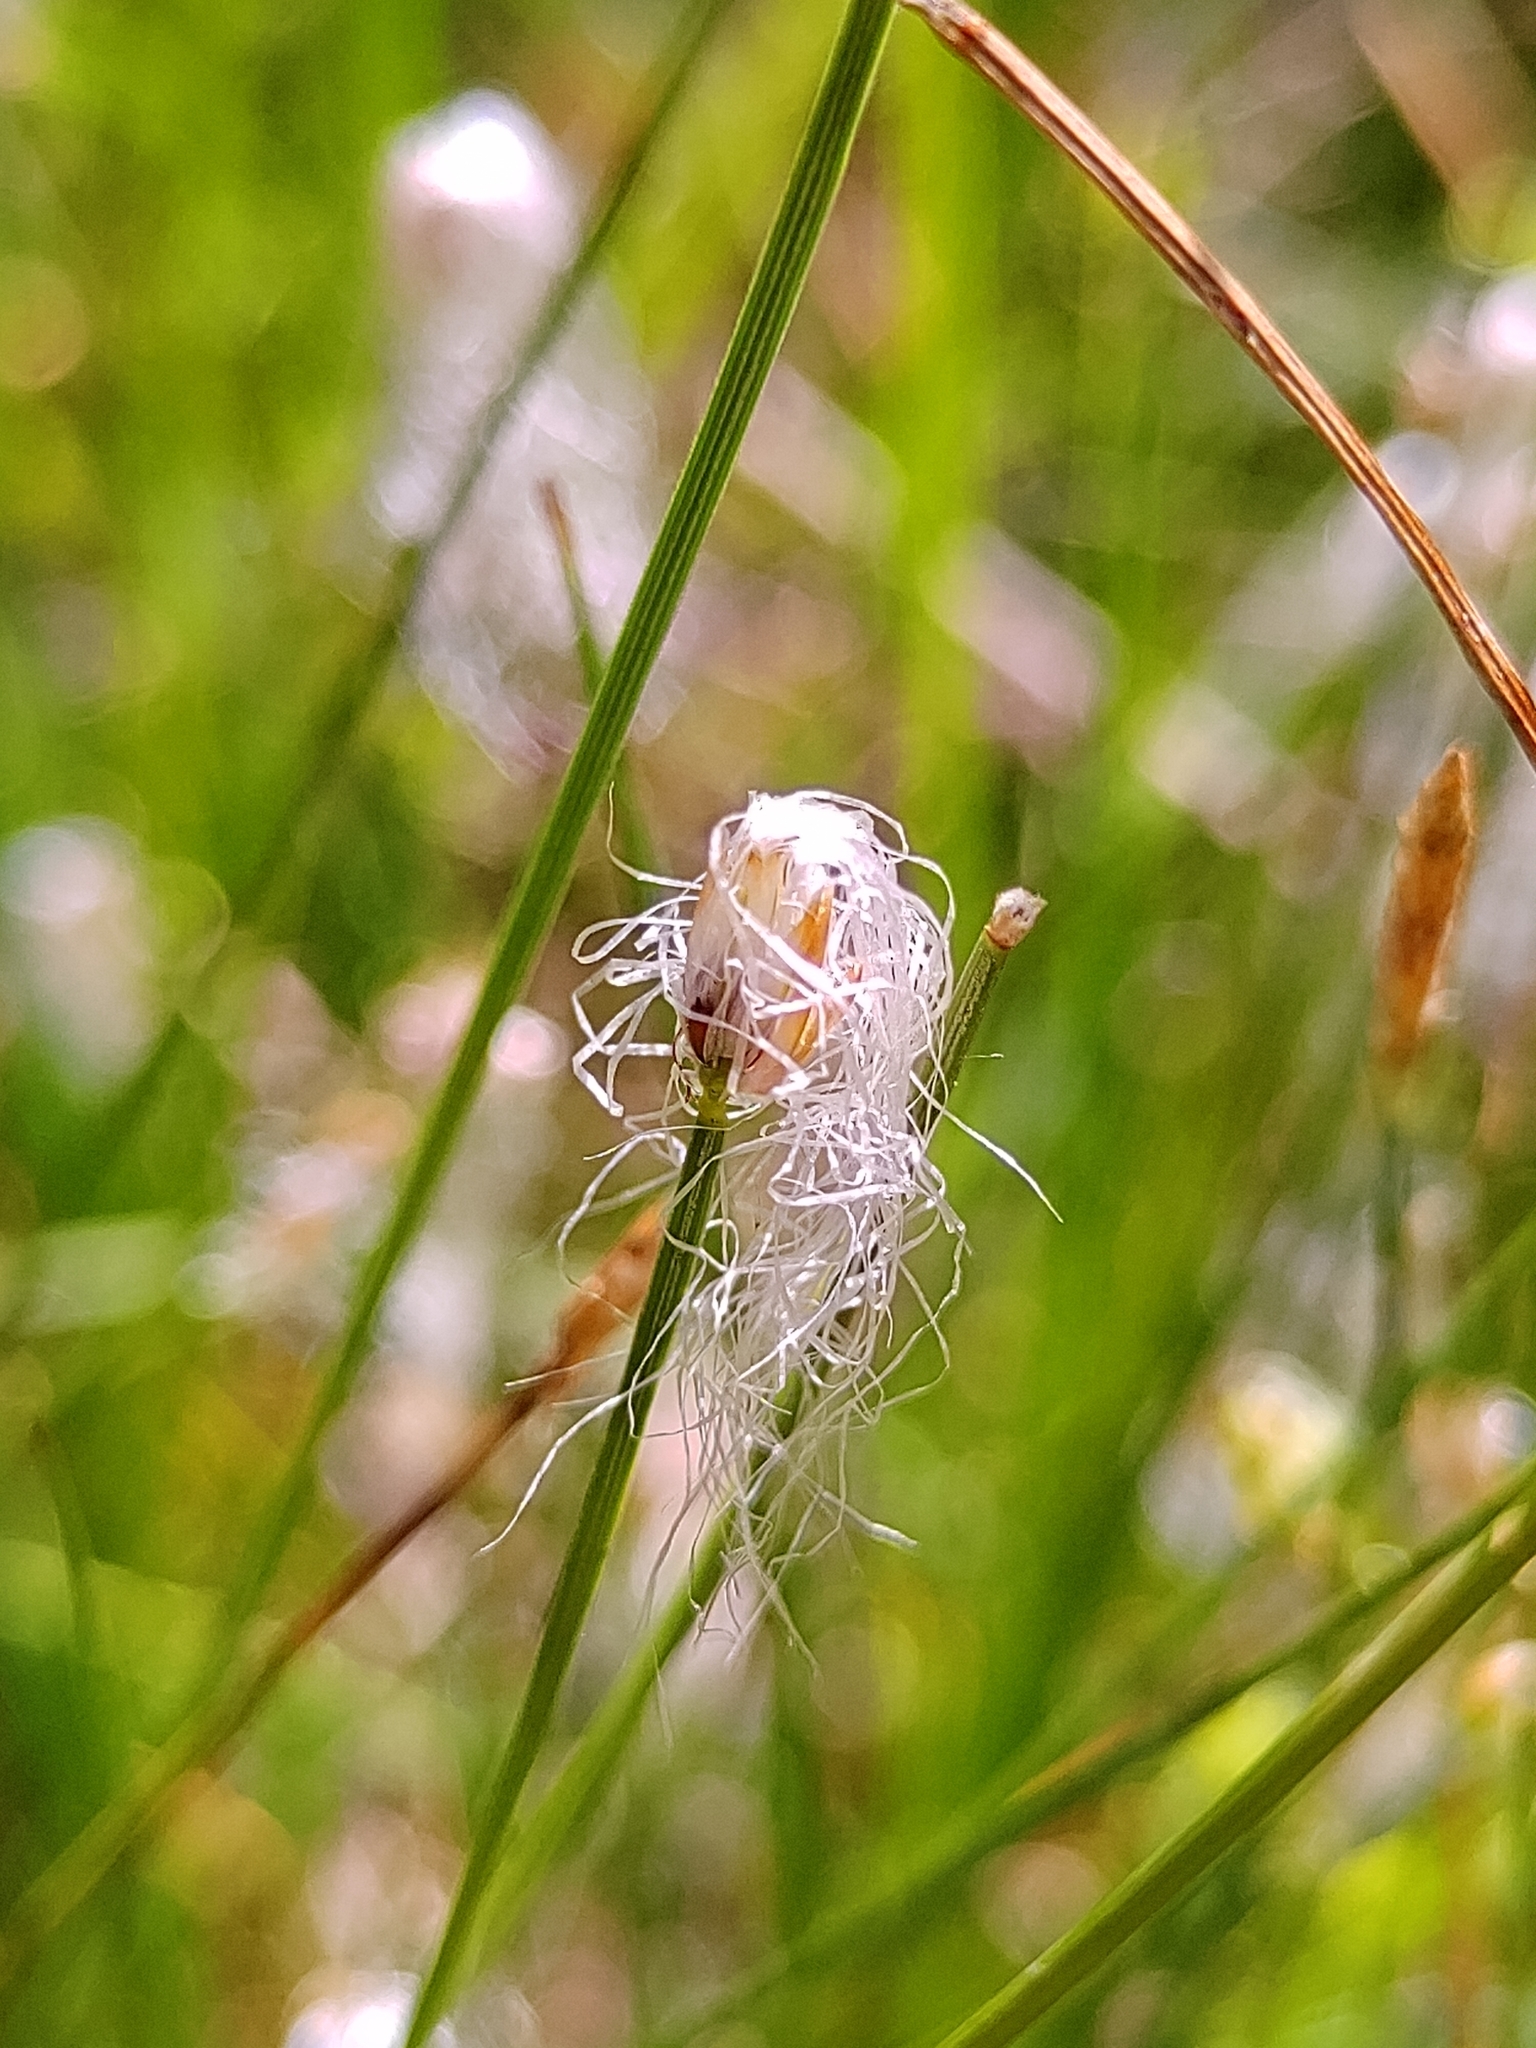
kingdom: Plantae
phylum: Tracheophyta
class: Liliopsida
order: Poales
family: Cyperaceae
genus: Trichophorum
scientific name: Trichophorum alpinum
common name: Alpine bulrush
